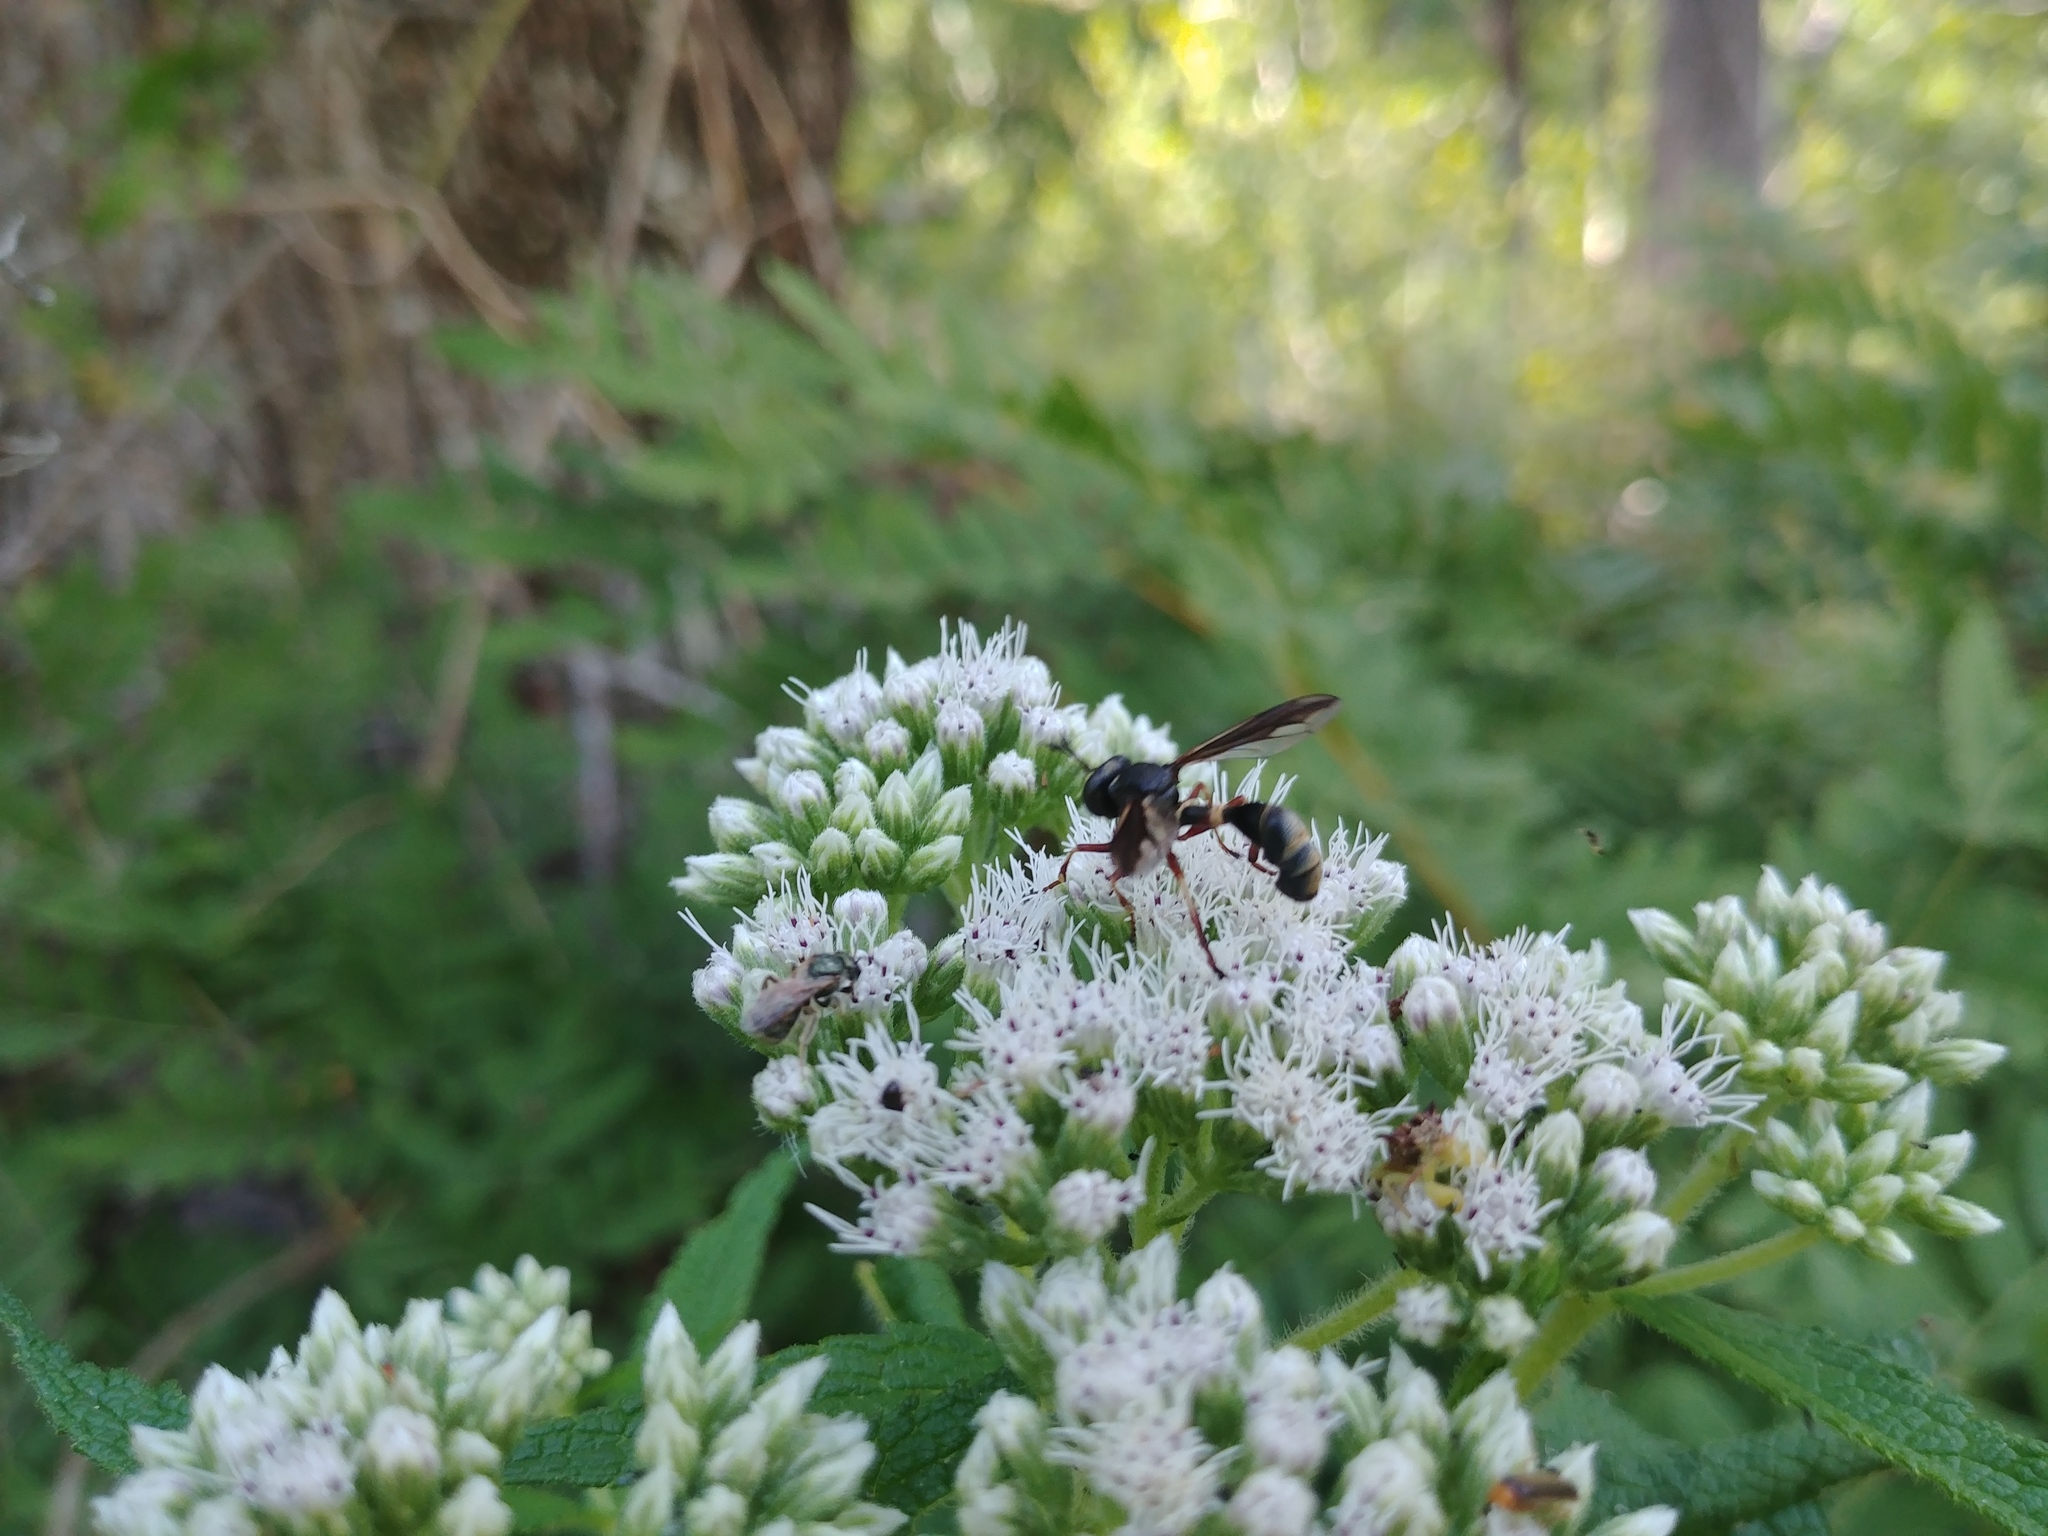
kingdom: Animalia
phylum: Arthropoda
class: Insecta
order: Diptera
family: Conopidae
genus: Physocephala
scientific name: Physocephala furcillata
